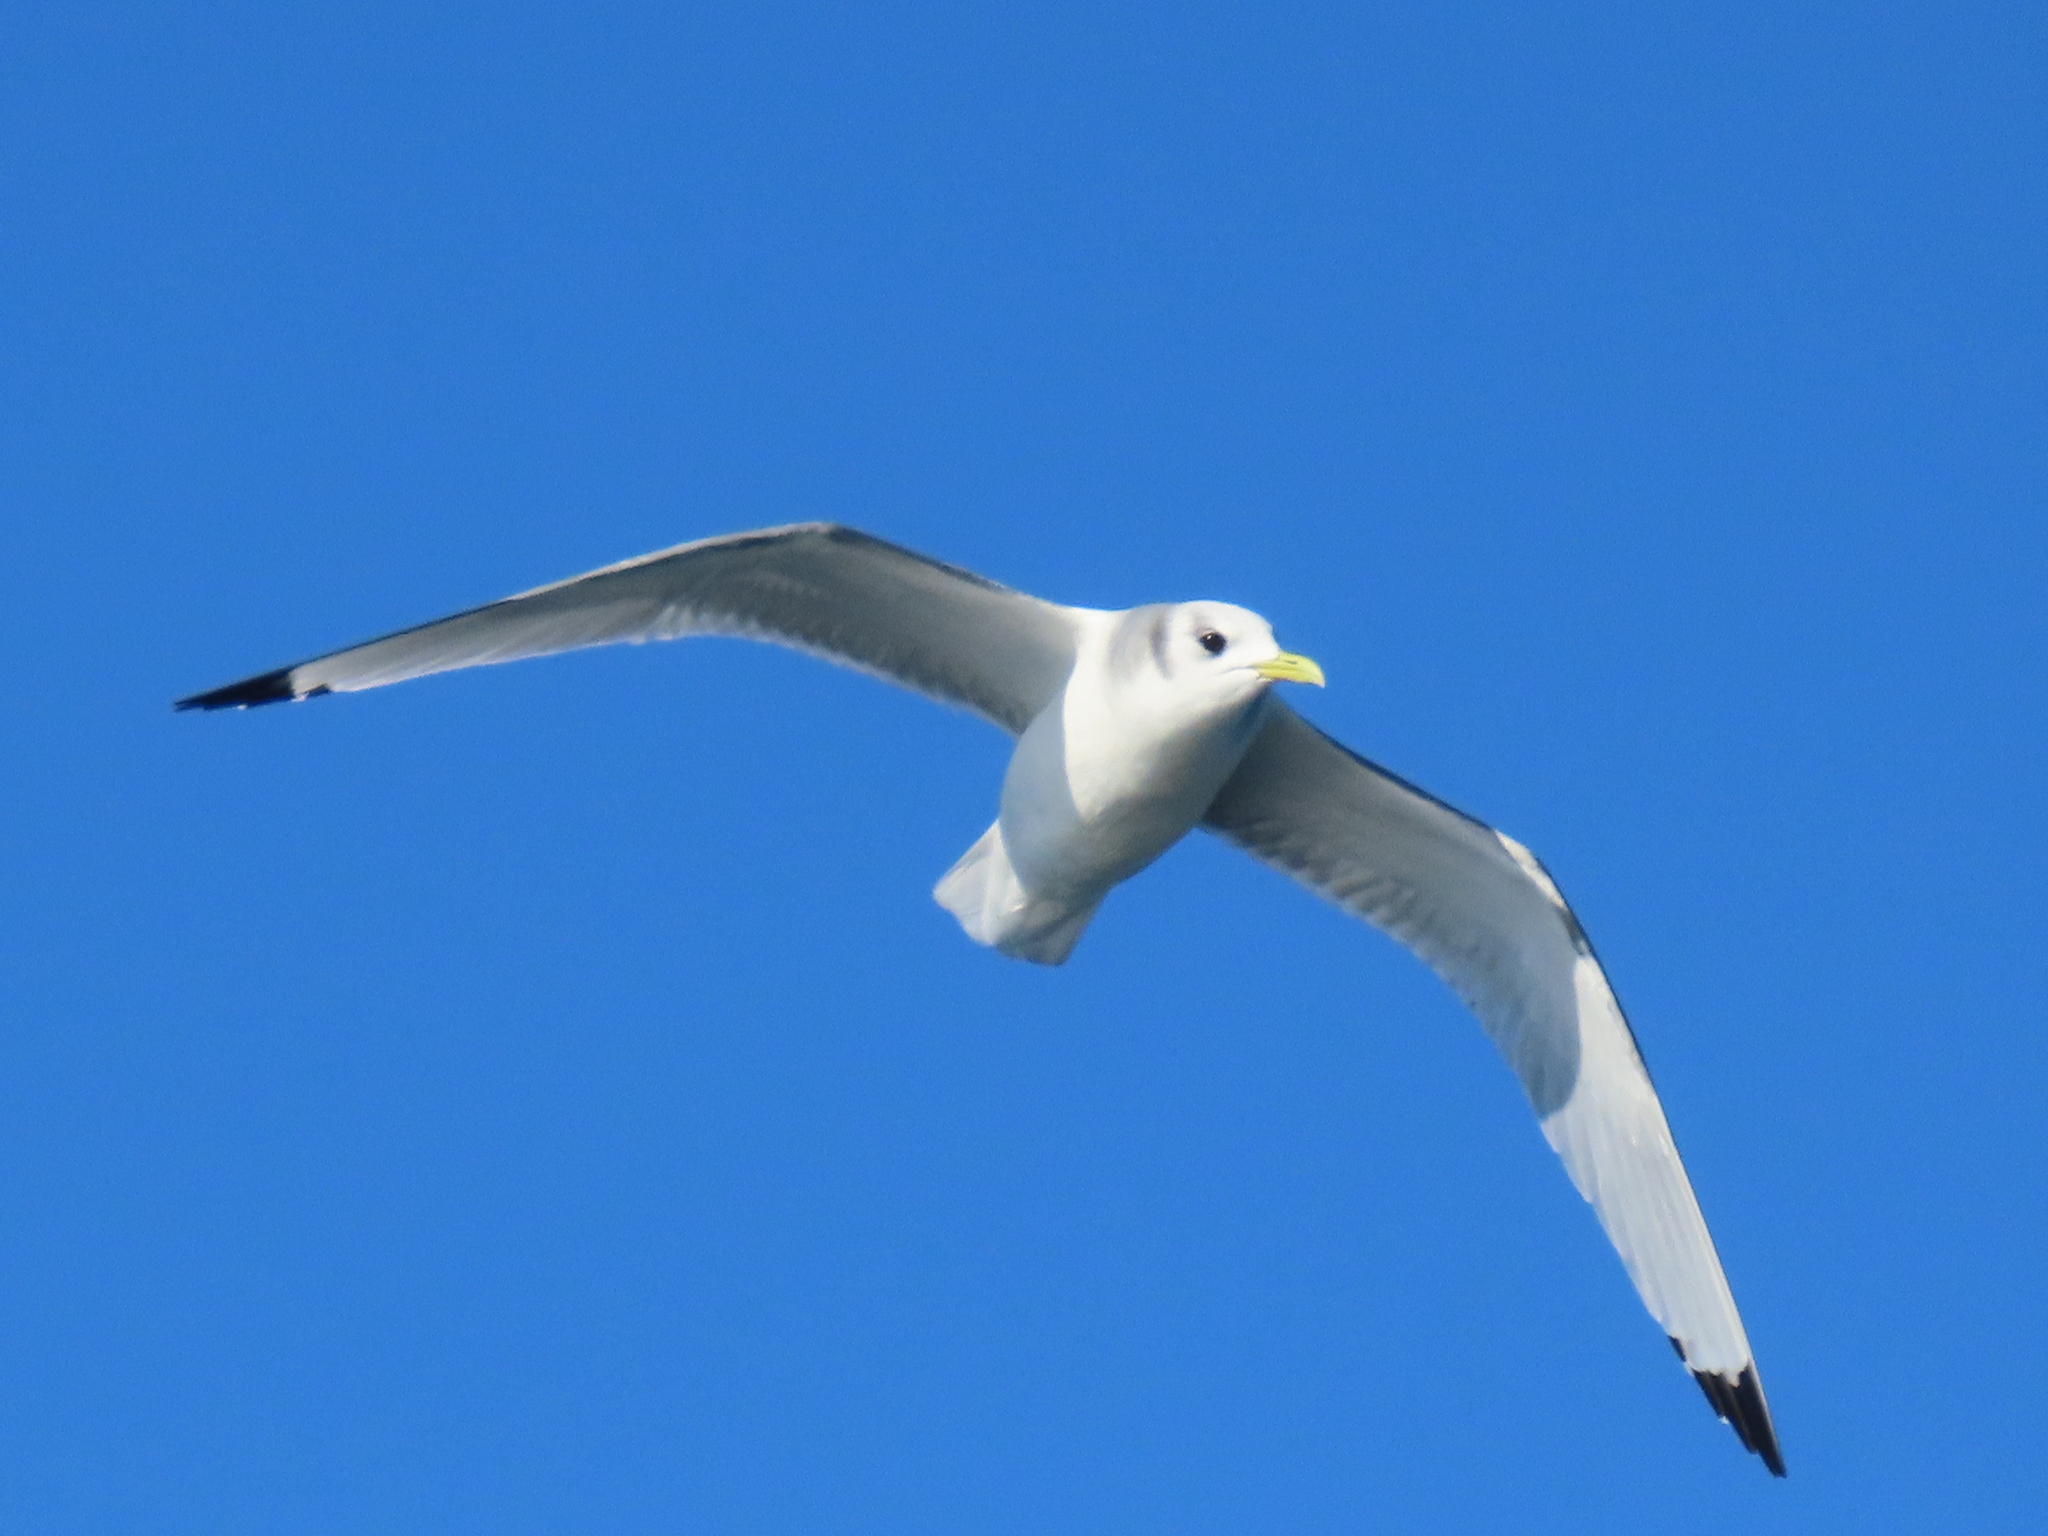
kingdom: Animalia
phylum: Chordata
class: Aves
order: Charadriiformes
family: Laridae
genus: Rissa
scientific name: Rissa tridactyla
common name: Black-legged kittiwake
